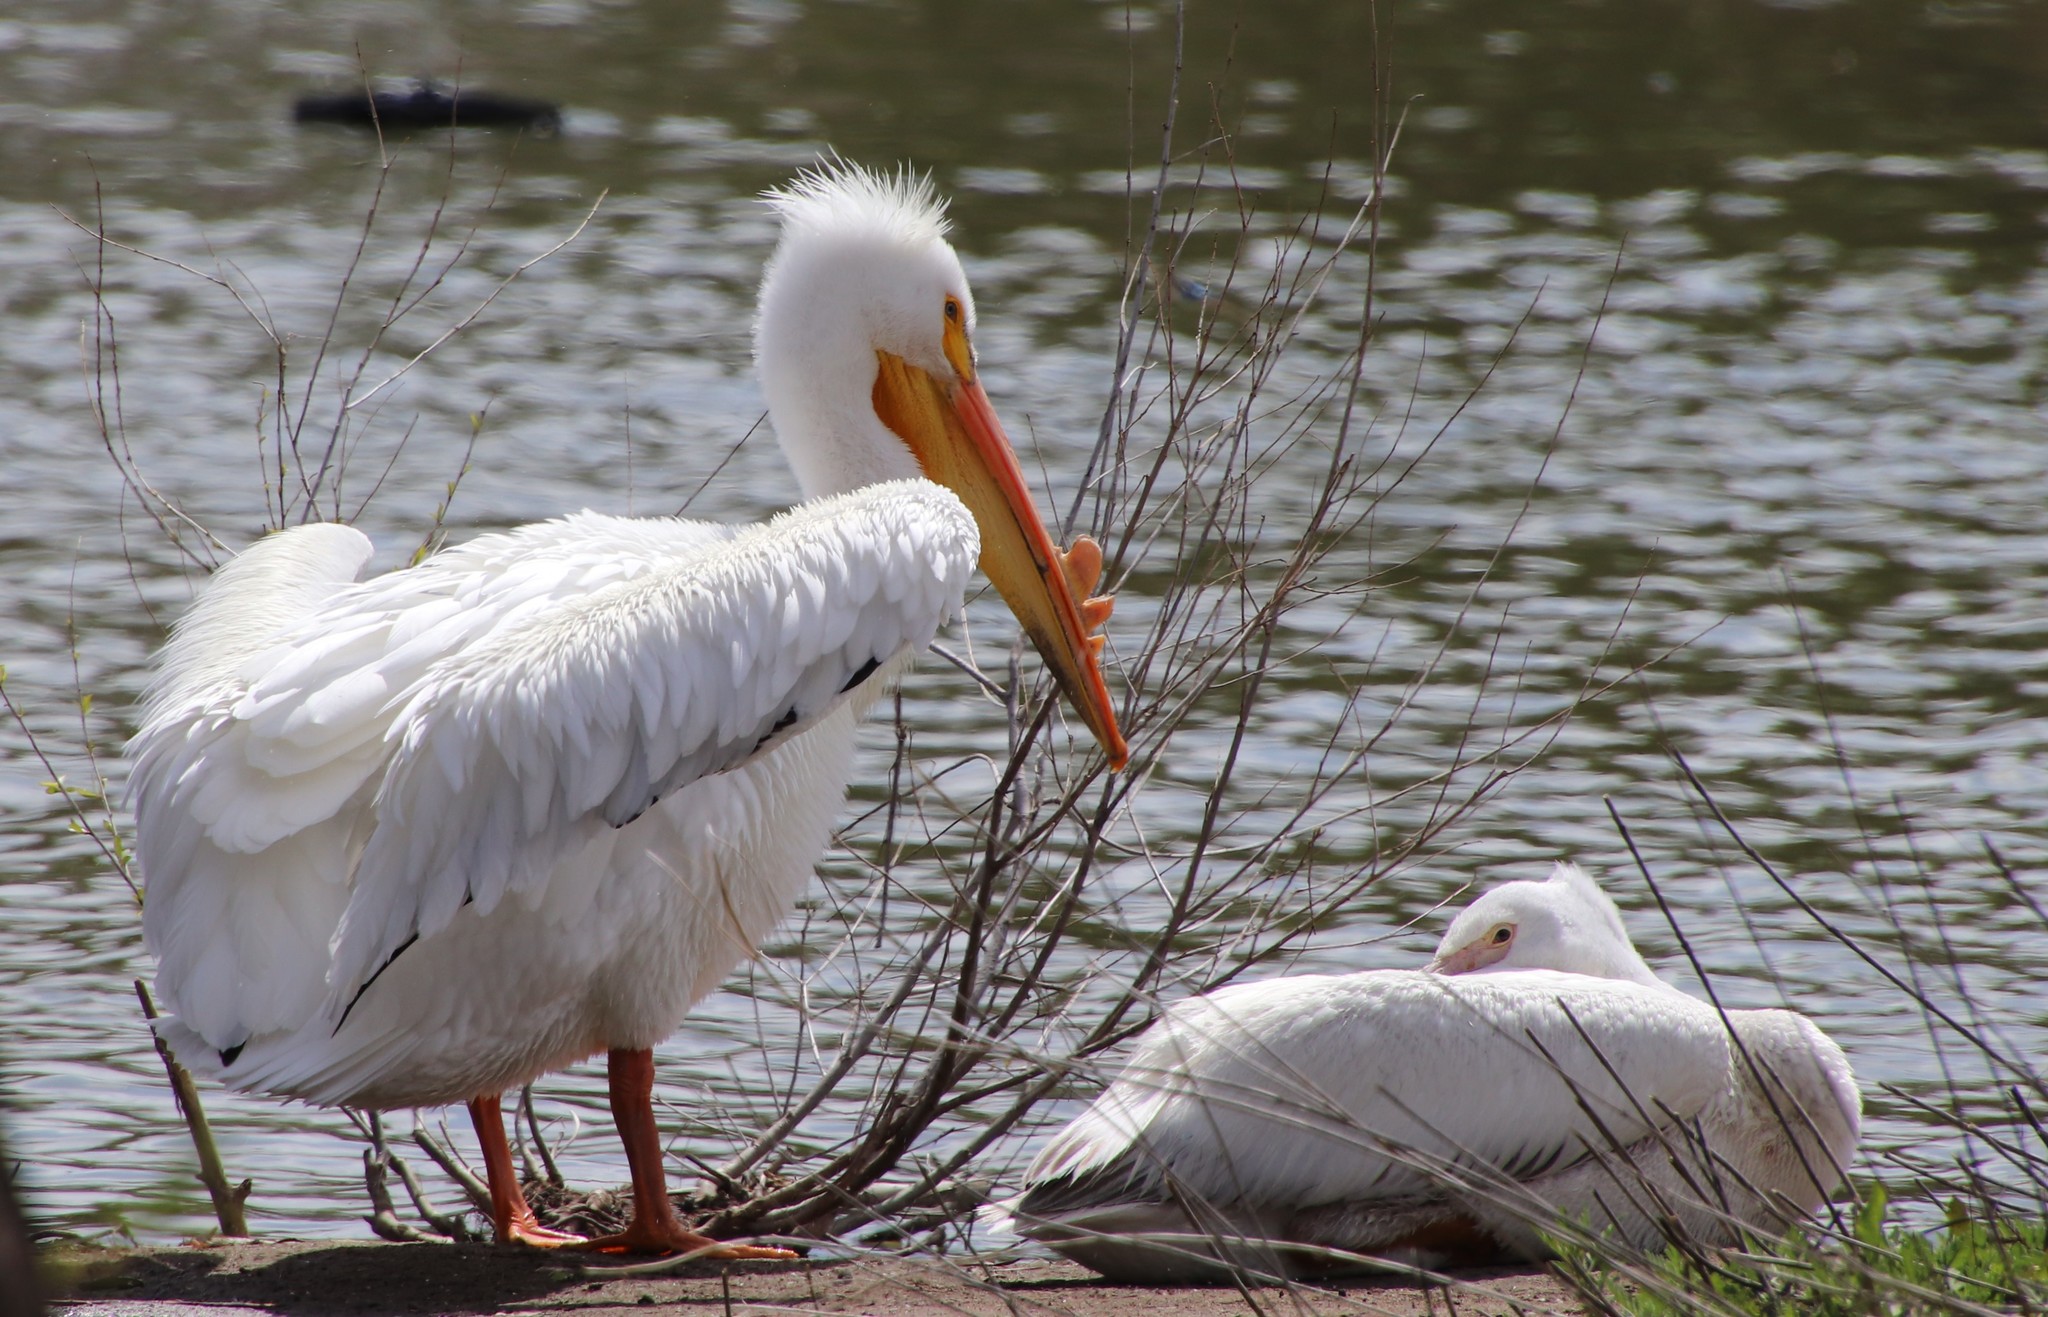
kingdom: Animalia
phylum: Chordata
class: Aves
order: Pelecaniformes
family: Pelecanidae
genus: Pelecanus
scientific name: Pelecanus erythrorhynchos
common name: American white pelican
